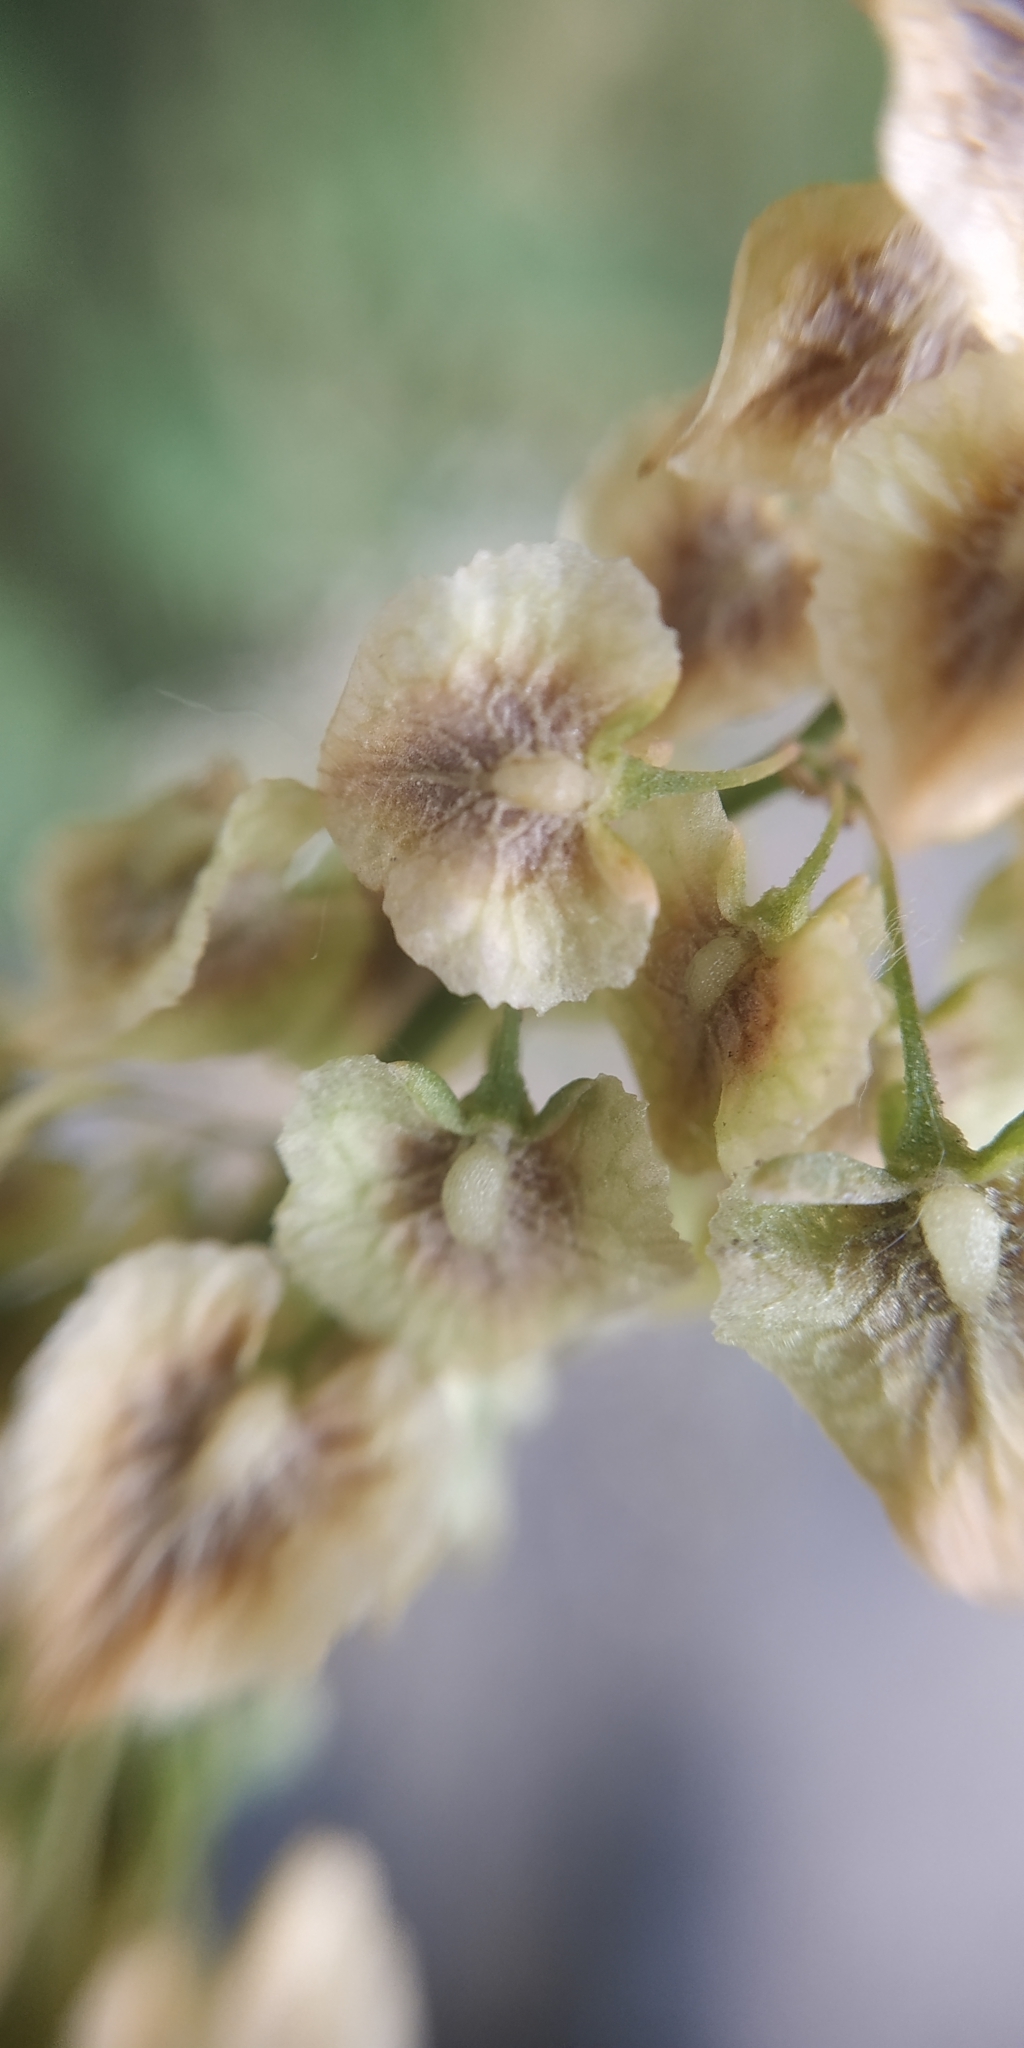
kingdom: Plantae
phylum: Tracheophyta
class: Magnoliopsida
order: Caryophyllales
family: Polygonaceae
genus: Rumex
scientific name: Rumex confertus
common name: Russian dock
